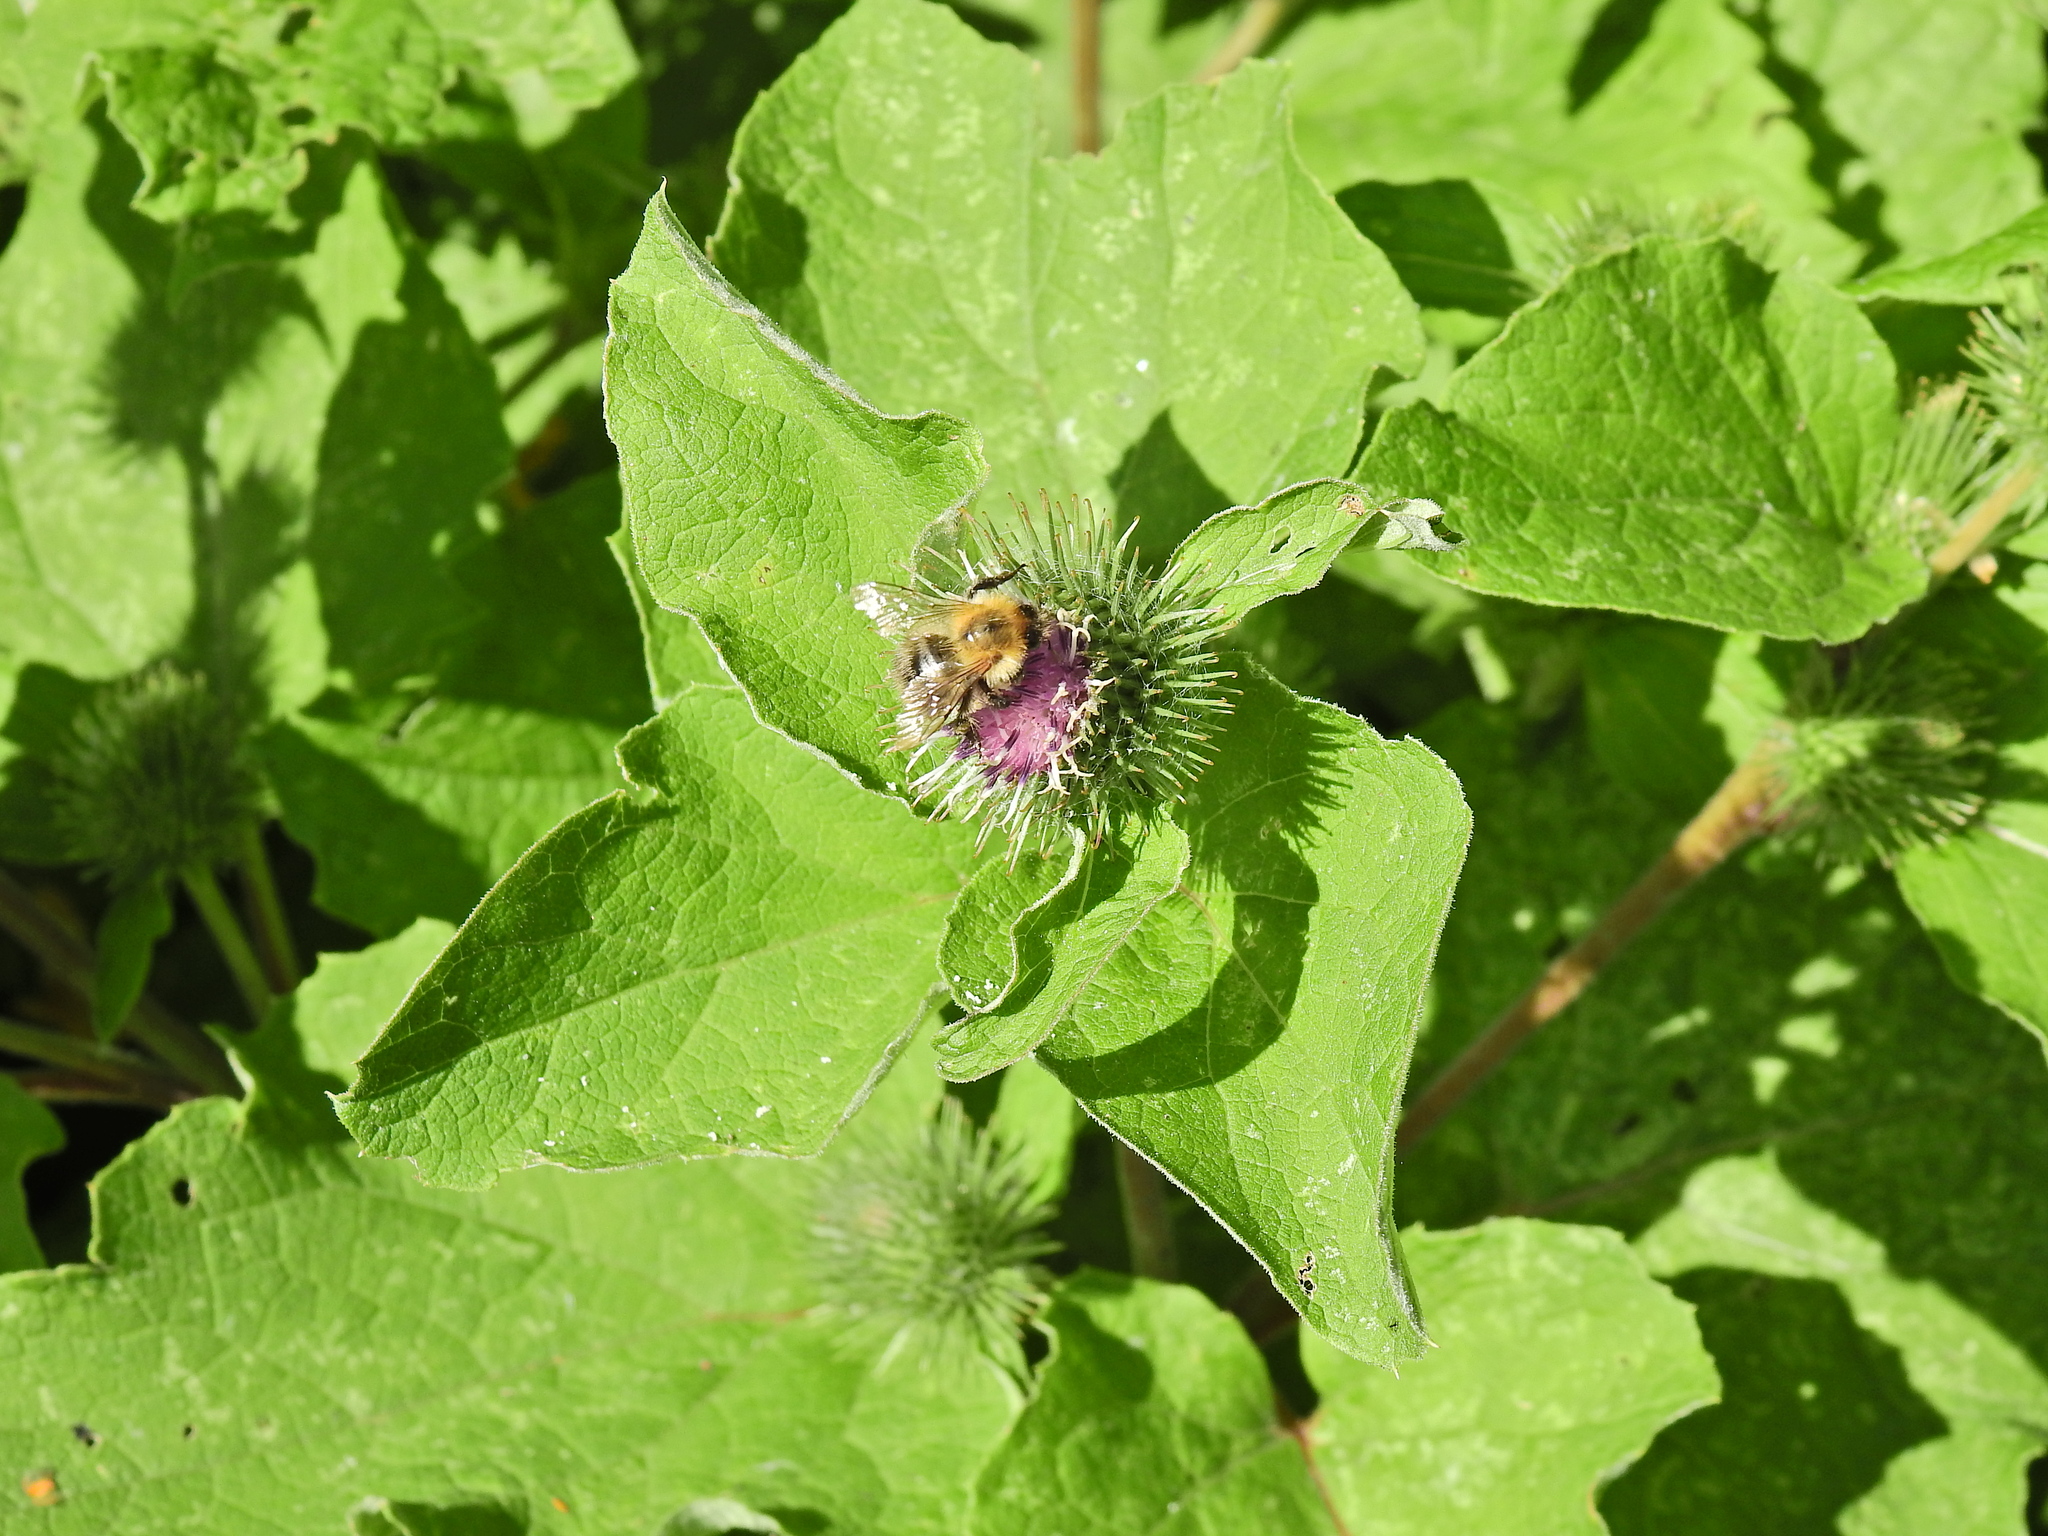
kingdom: Animalia
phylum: Arthropoda
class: Insecta
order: Hymenoptera
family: Apidae
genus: Bombus
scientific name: Bombus pascuorum
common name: Common carder bee
